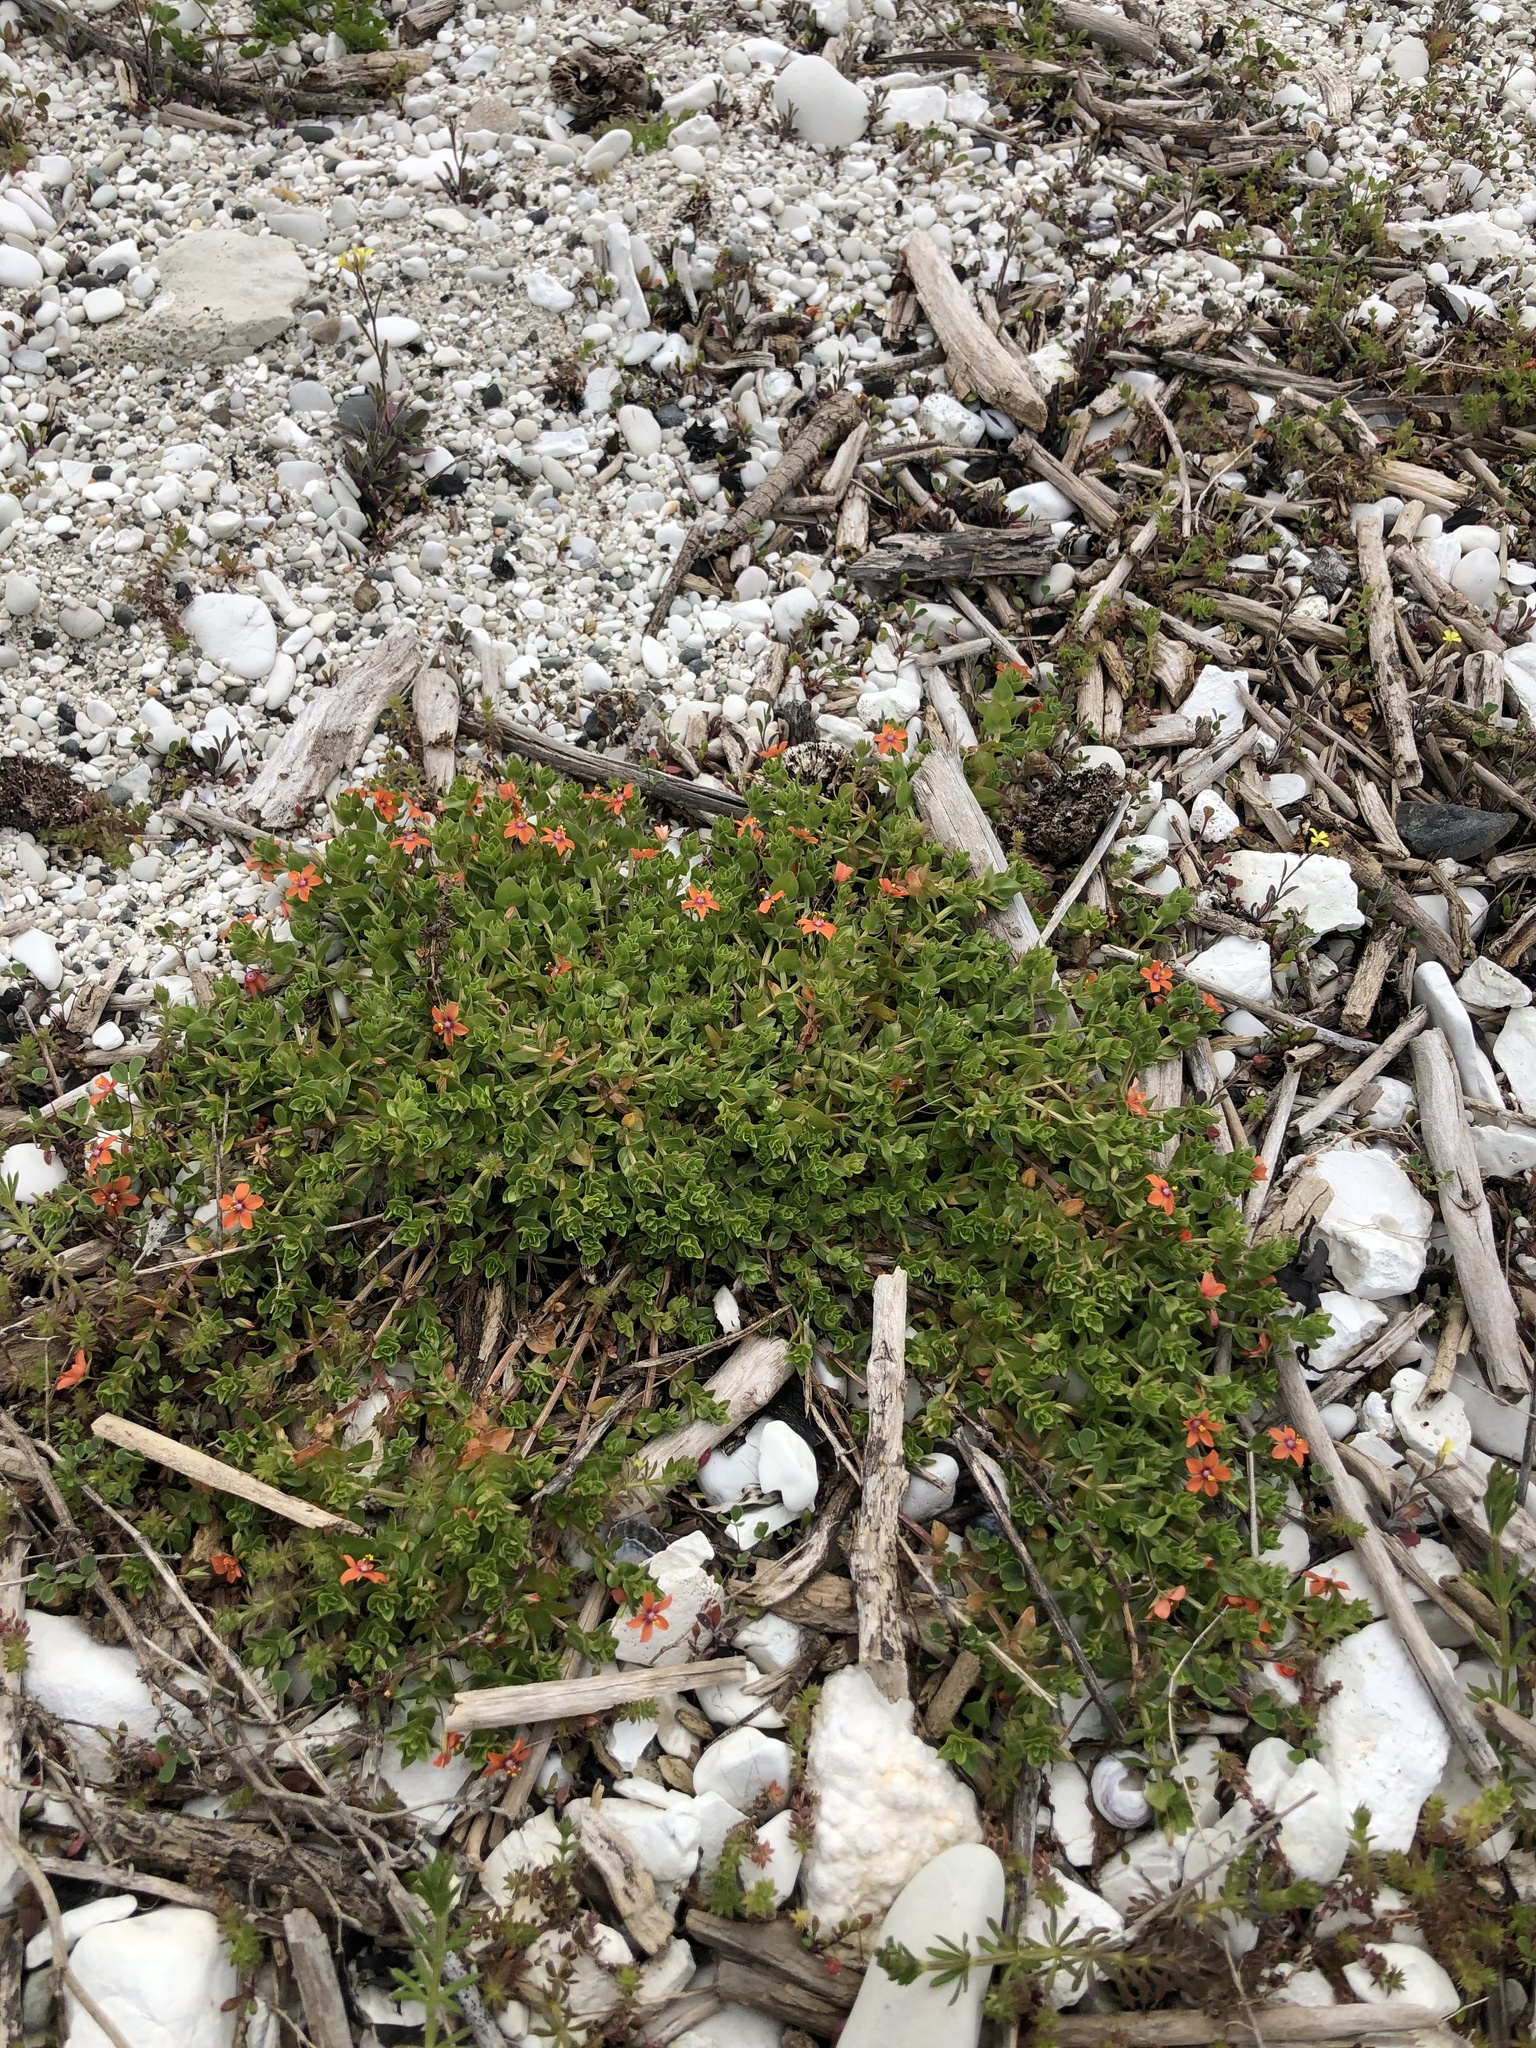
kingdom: Plantae
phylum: Tracheophyta
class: Magnoliopsida
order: Ericales
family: Primulaceae
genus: Lysimachia
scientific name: Lysimachia arvensis
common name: Scarlet pimpernel
